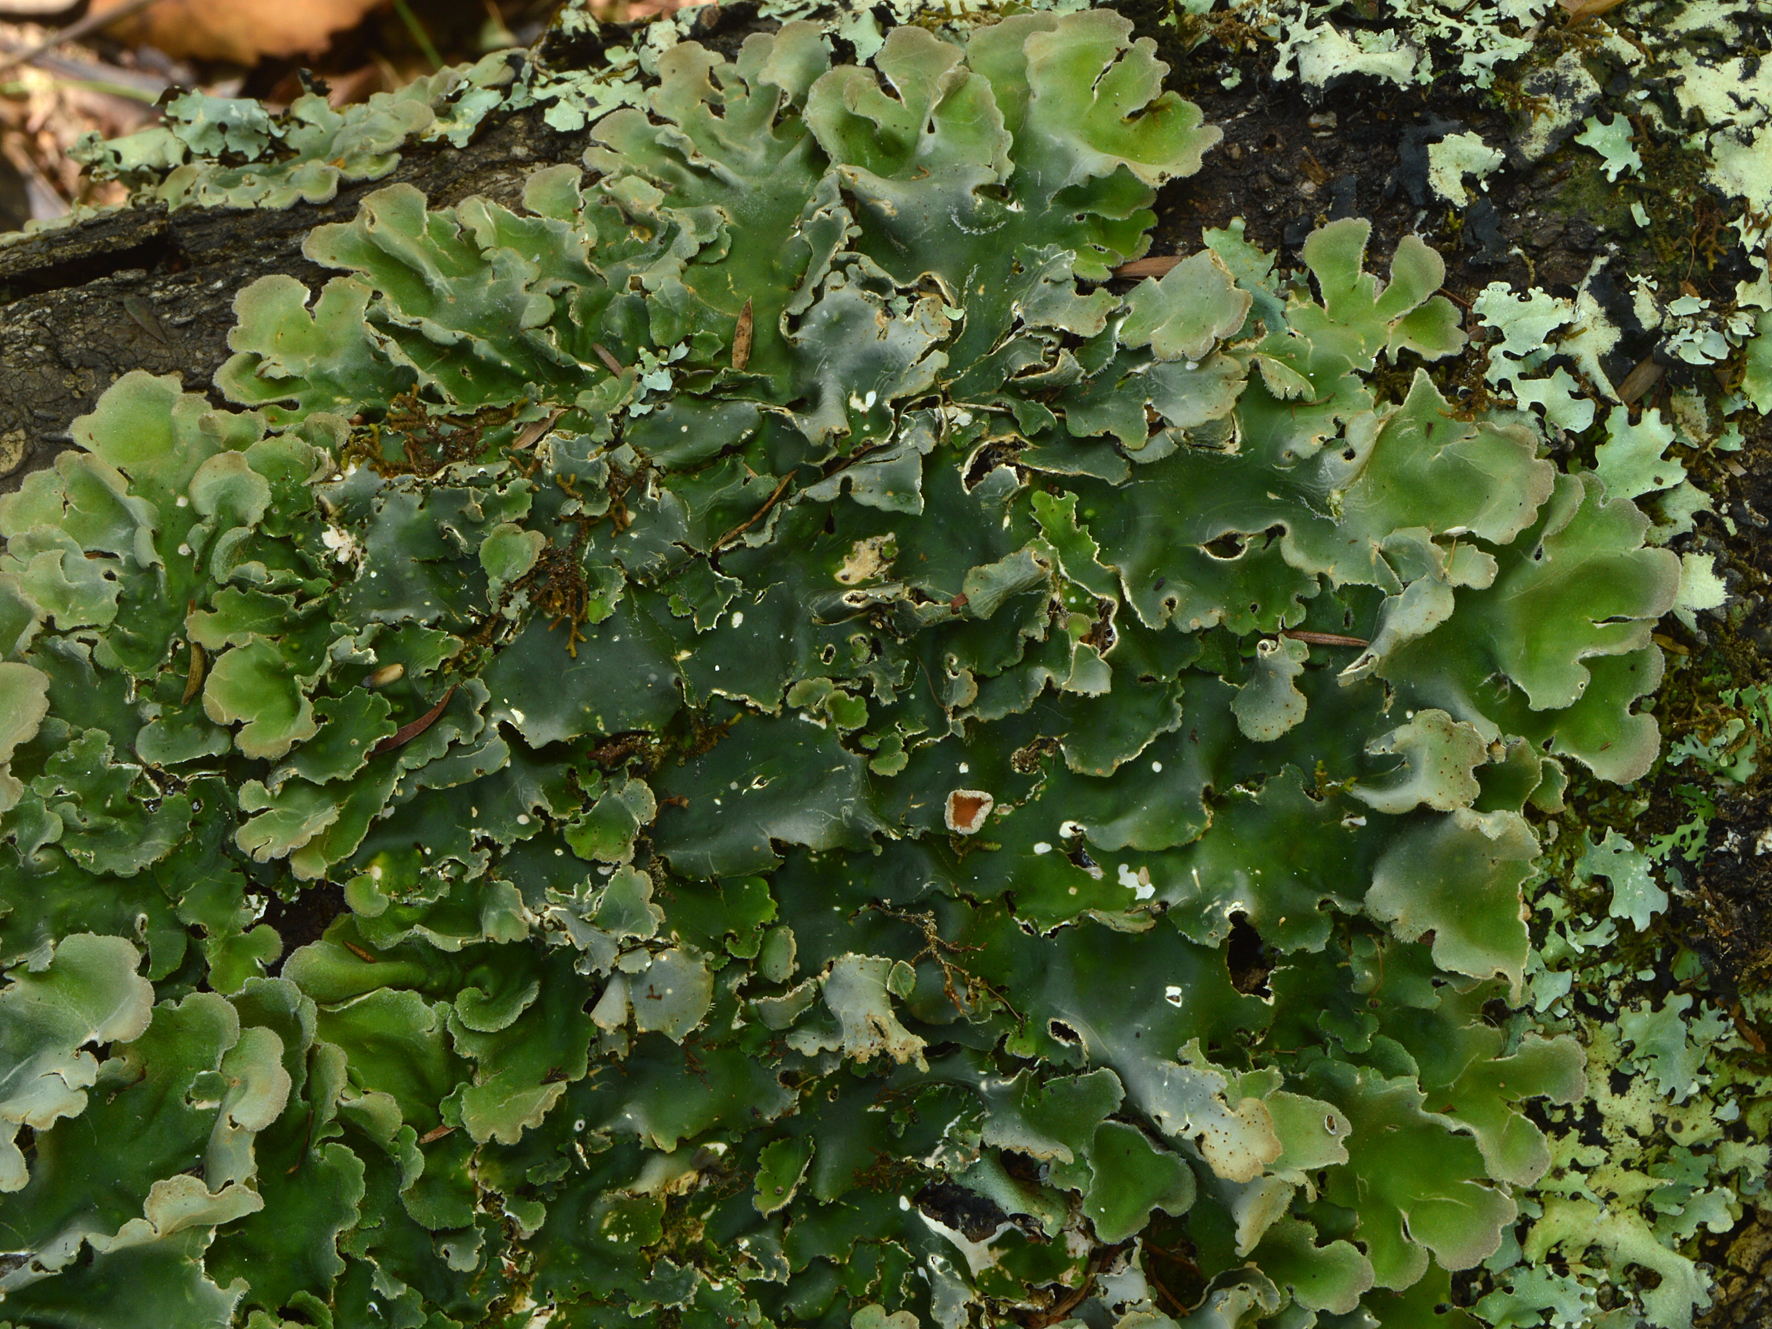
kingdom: Fungi
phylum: Ascomycota
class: Lecanoromycetes
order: Peltigerales
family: Lobariaceae
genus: Pseudocyphellaria
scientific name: Pseudocyphellaria coriacea
